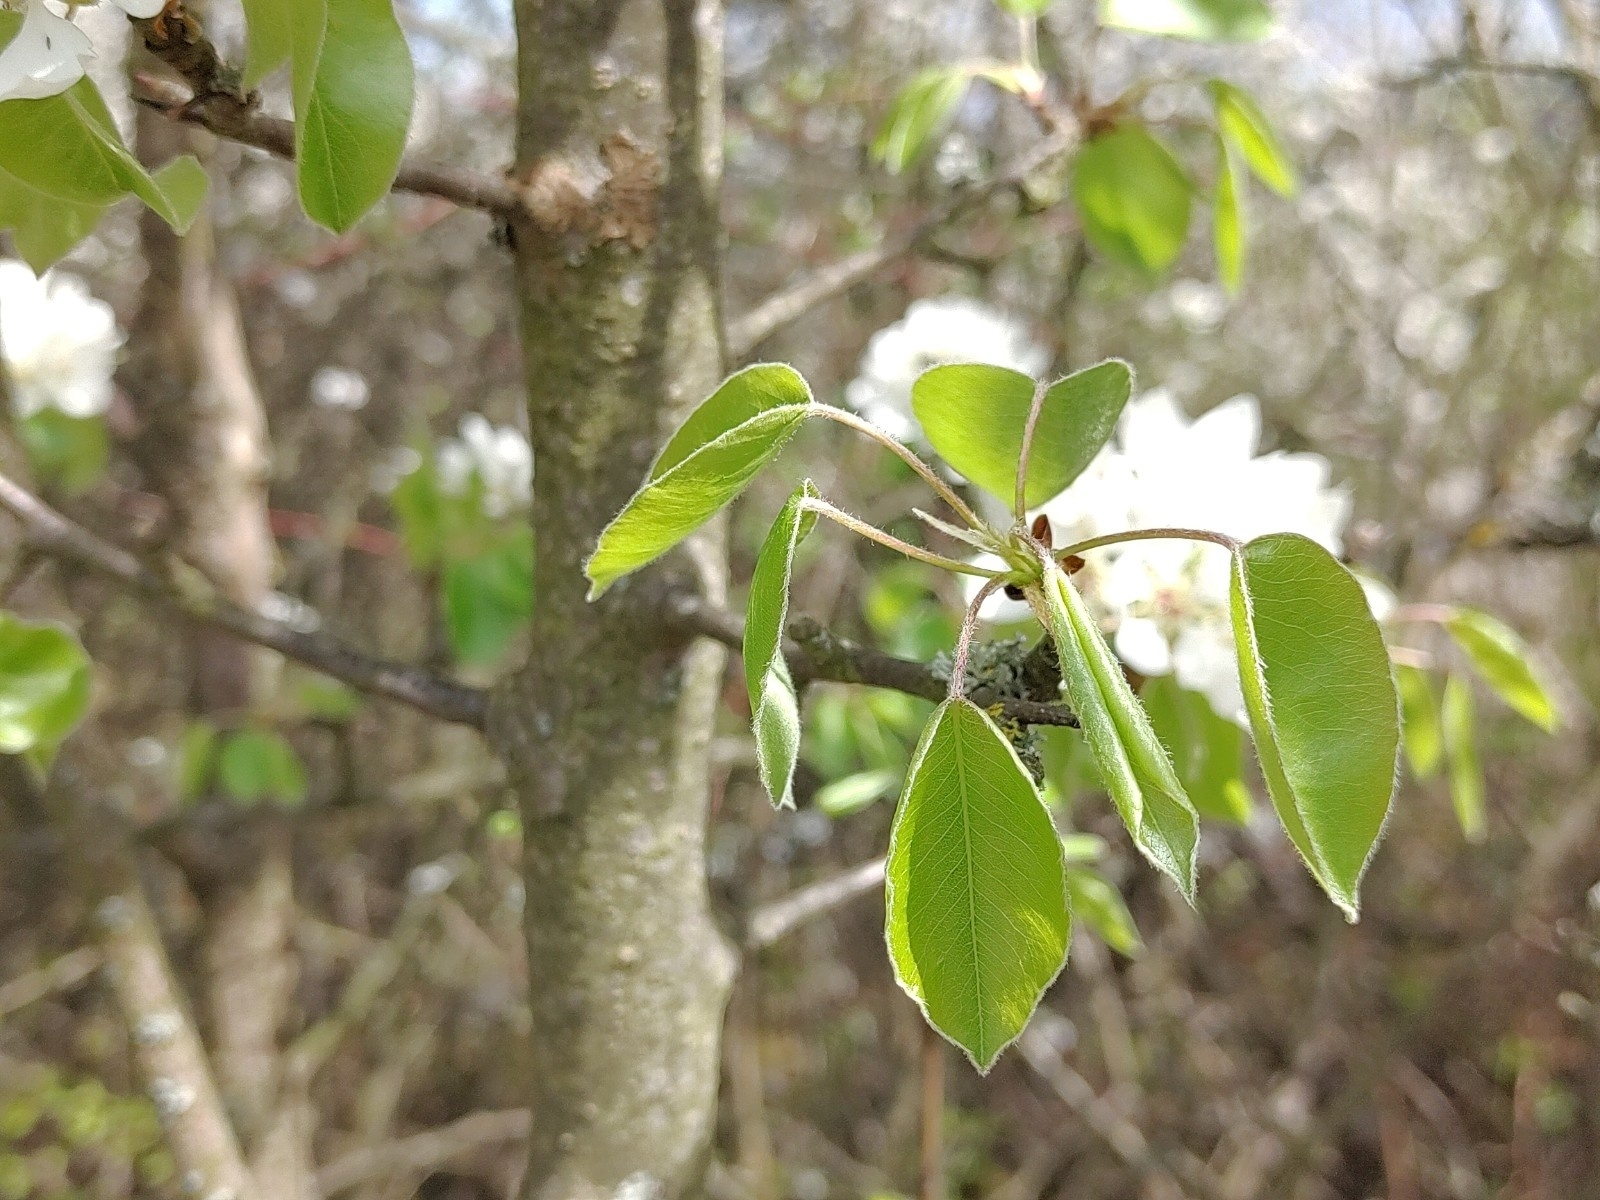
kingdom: Plantae
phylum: Tracheophyta
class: Magnoliopsida
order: Rosales
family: Rosaceae
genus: Pyrus
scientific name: Pyrus communis
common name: Pear
